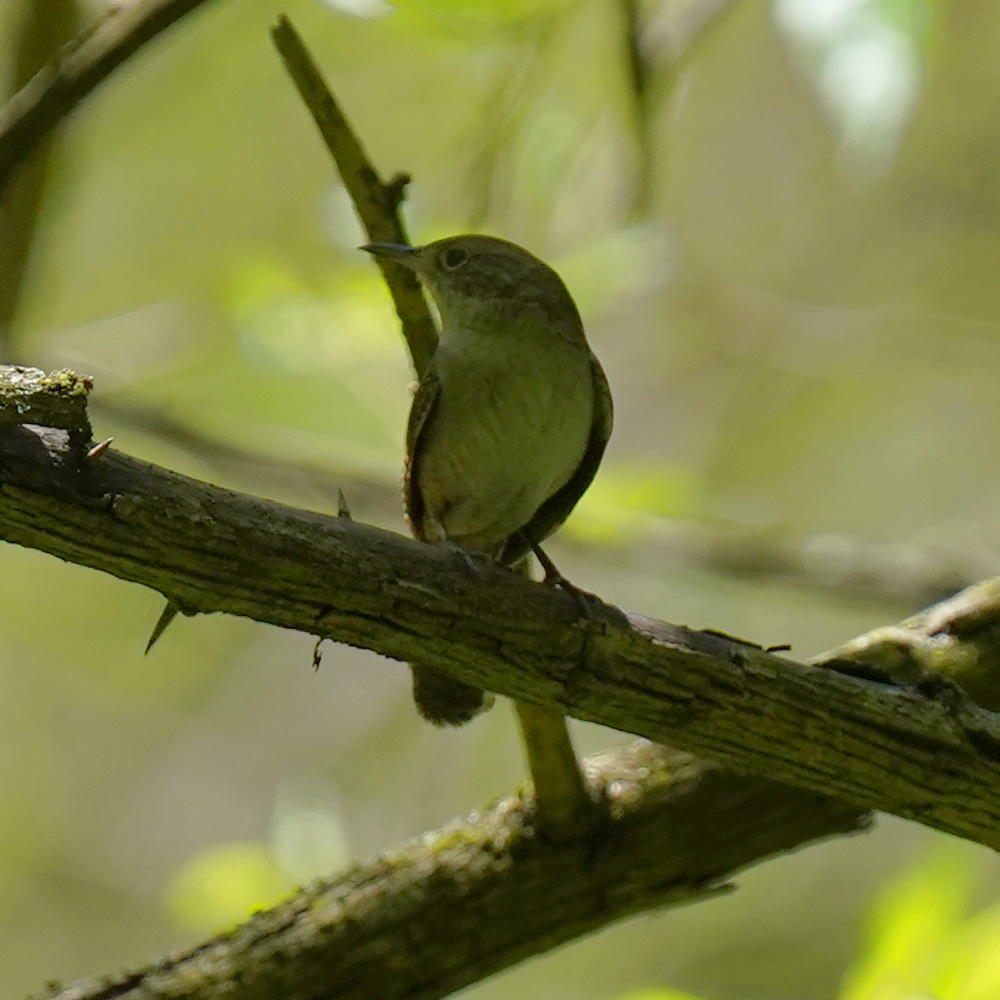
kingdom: Animalia
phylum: Chordata
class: Aves
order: Passeriformes
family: Troglodytidae
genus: Troglodytes
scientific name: Troglodytes aedon
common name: House wren
